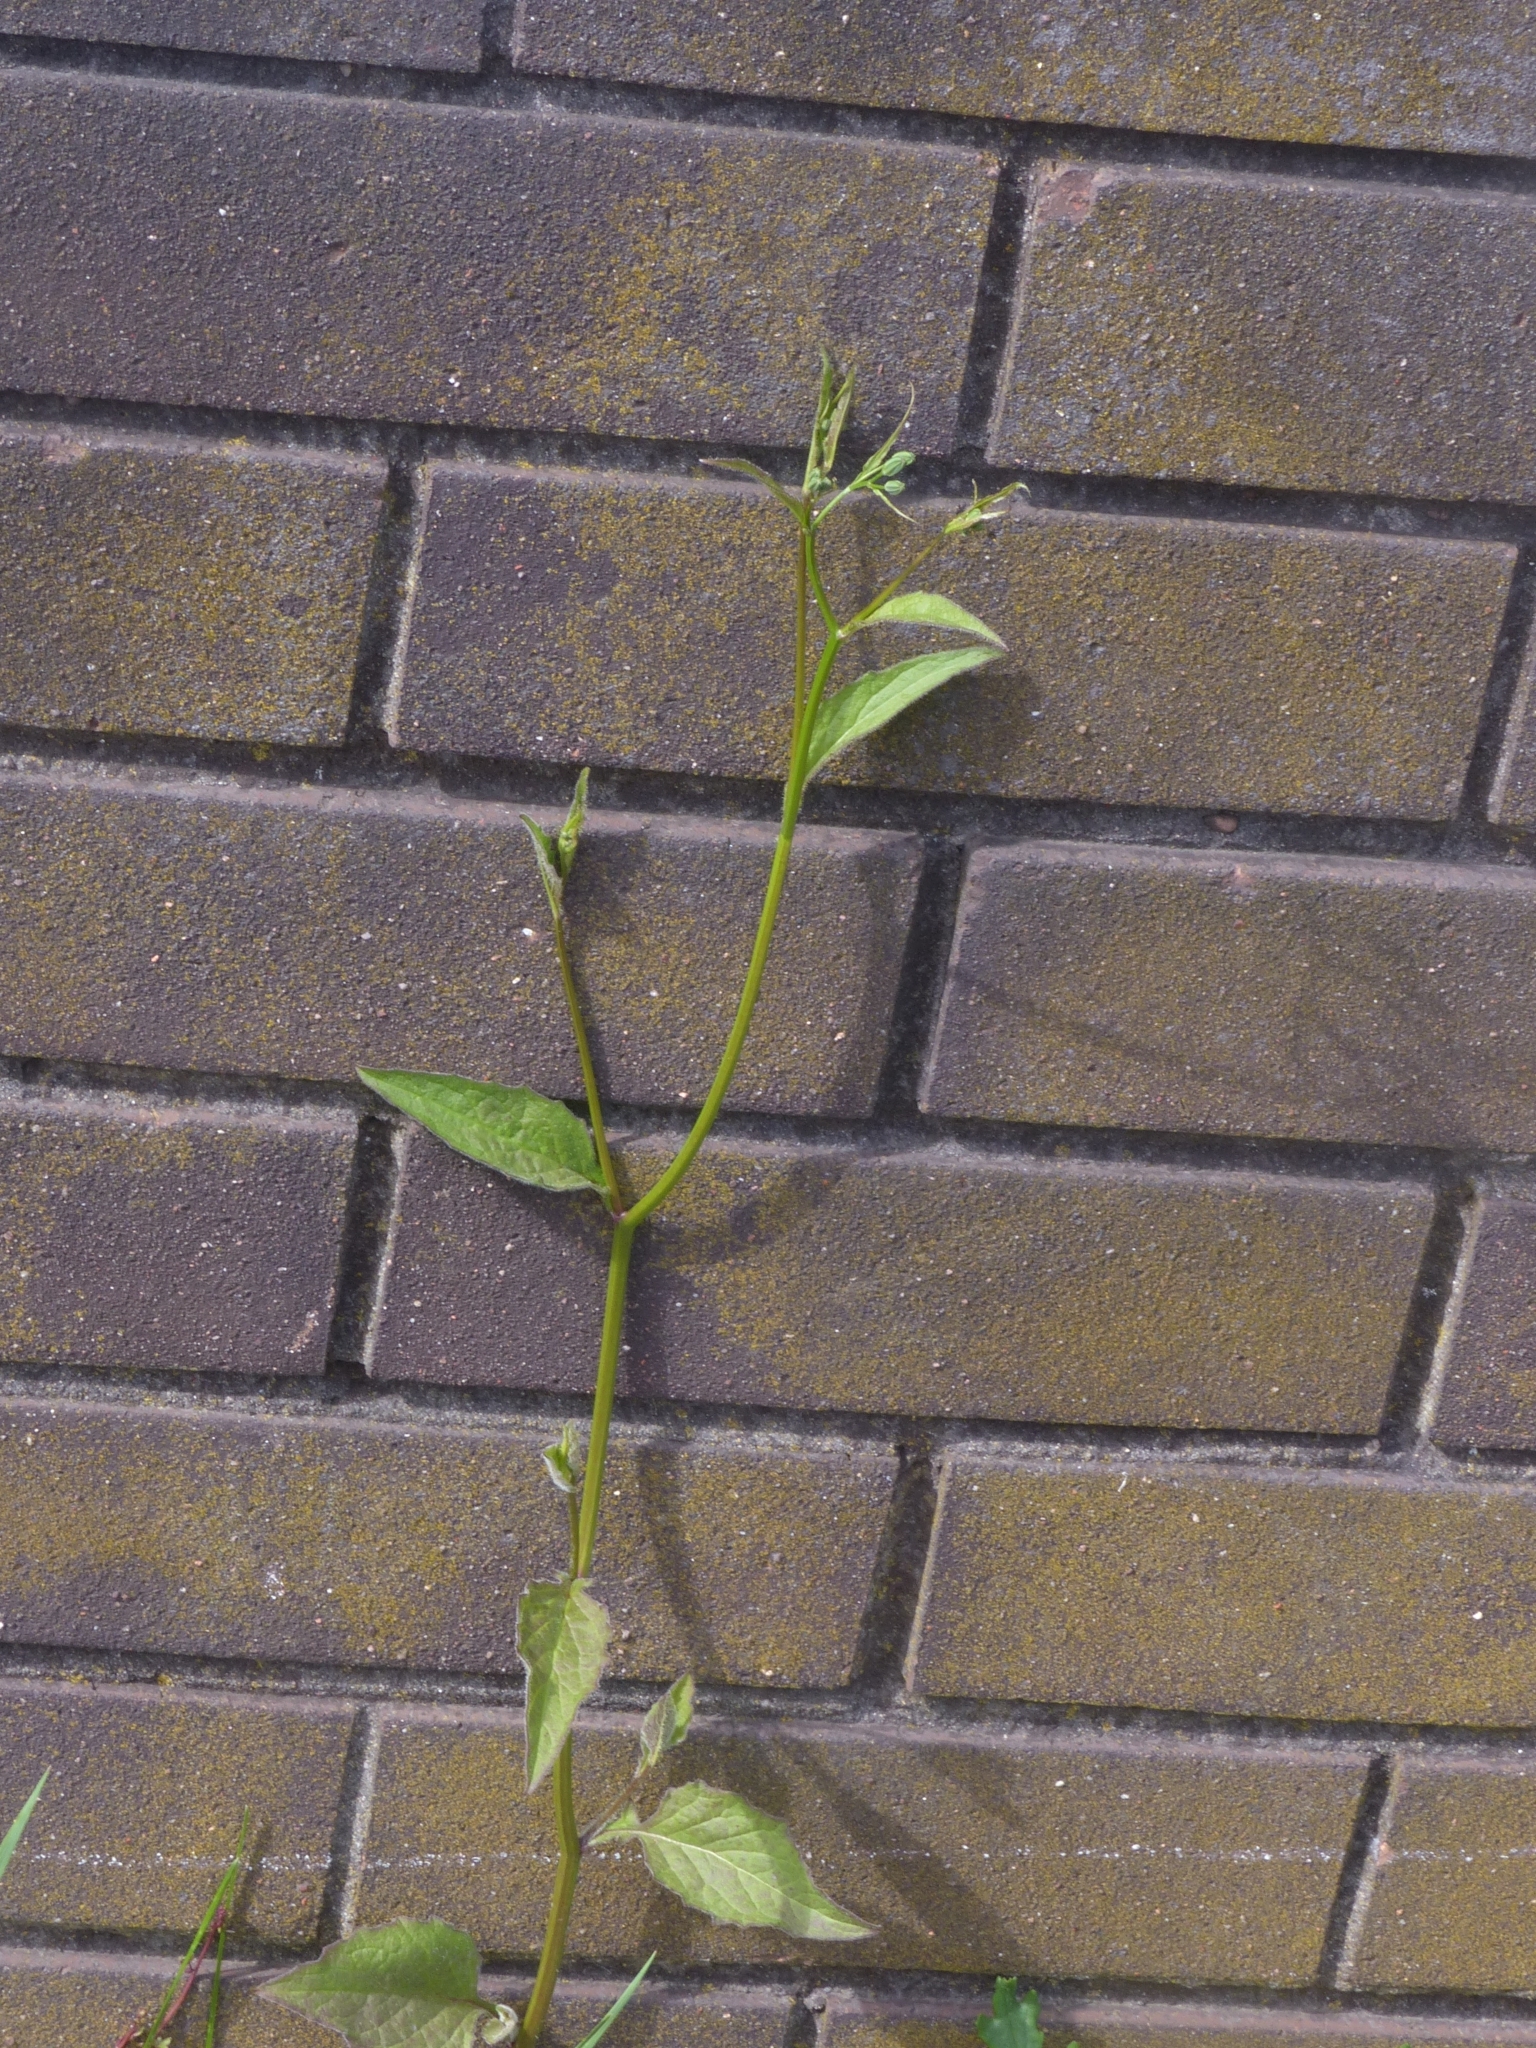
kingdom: Plantae
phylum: Tracheophyta
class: Magnoliopsida
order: Asterales
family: Asteraceae
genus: Lapsana
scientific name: Lapsana communis
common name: Nipplewort
